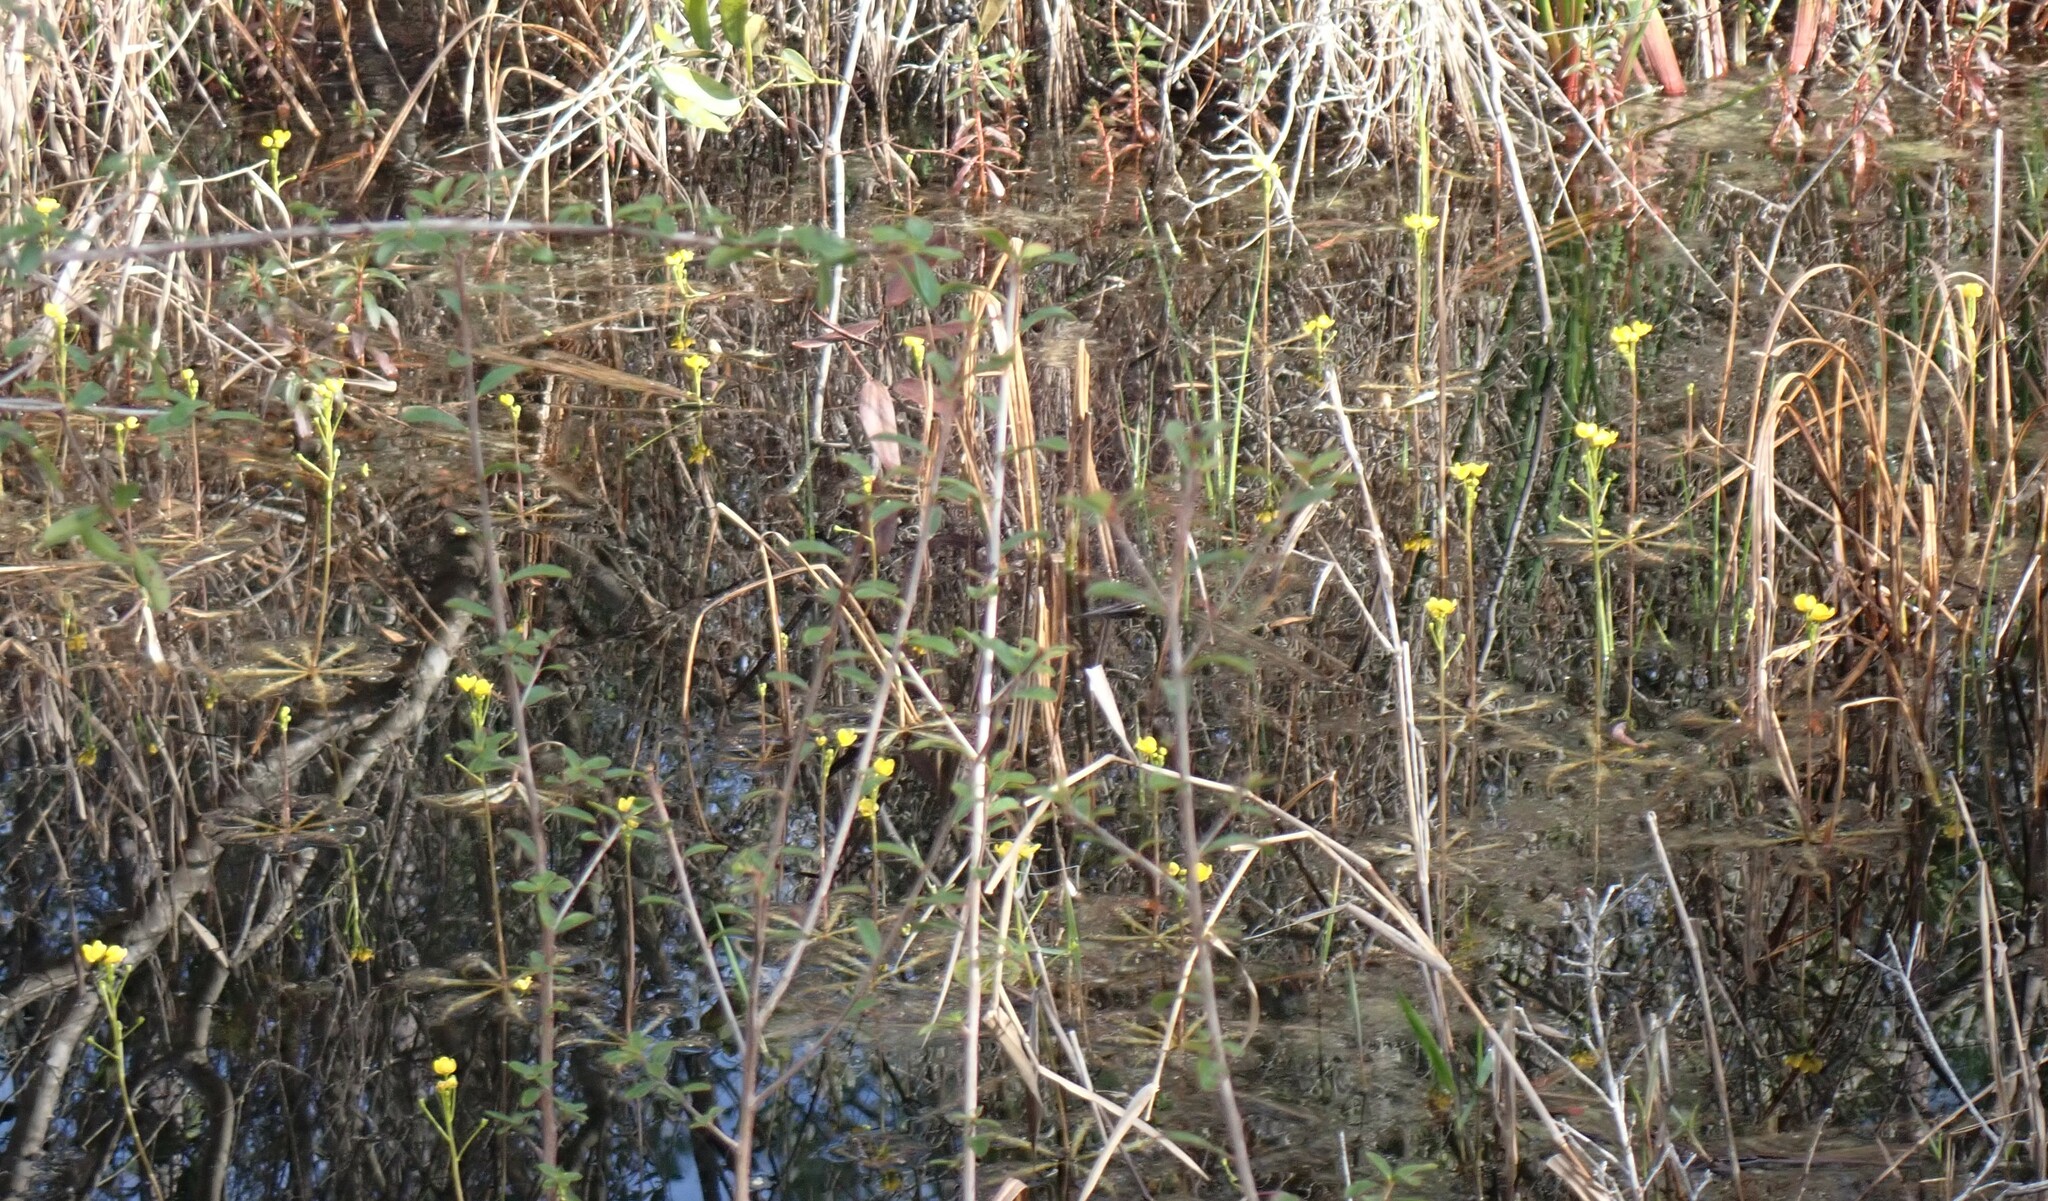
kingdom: Plantae
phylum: Tracheophyta
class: Magnoliopsida
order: Lamiales
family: Lentibulariaceae
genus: Utricularia
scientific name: Utricularia inflata
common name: Floating bladderwort
